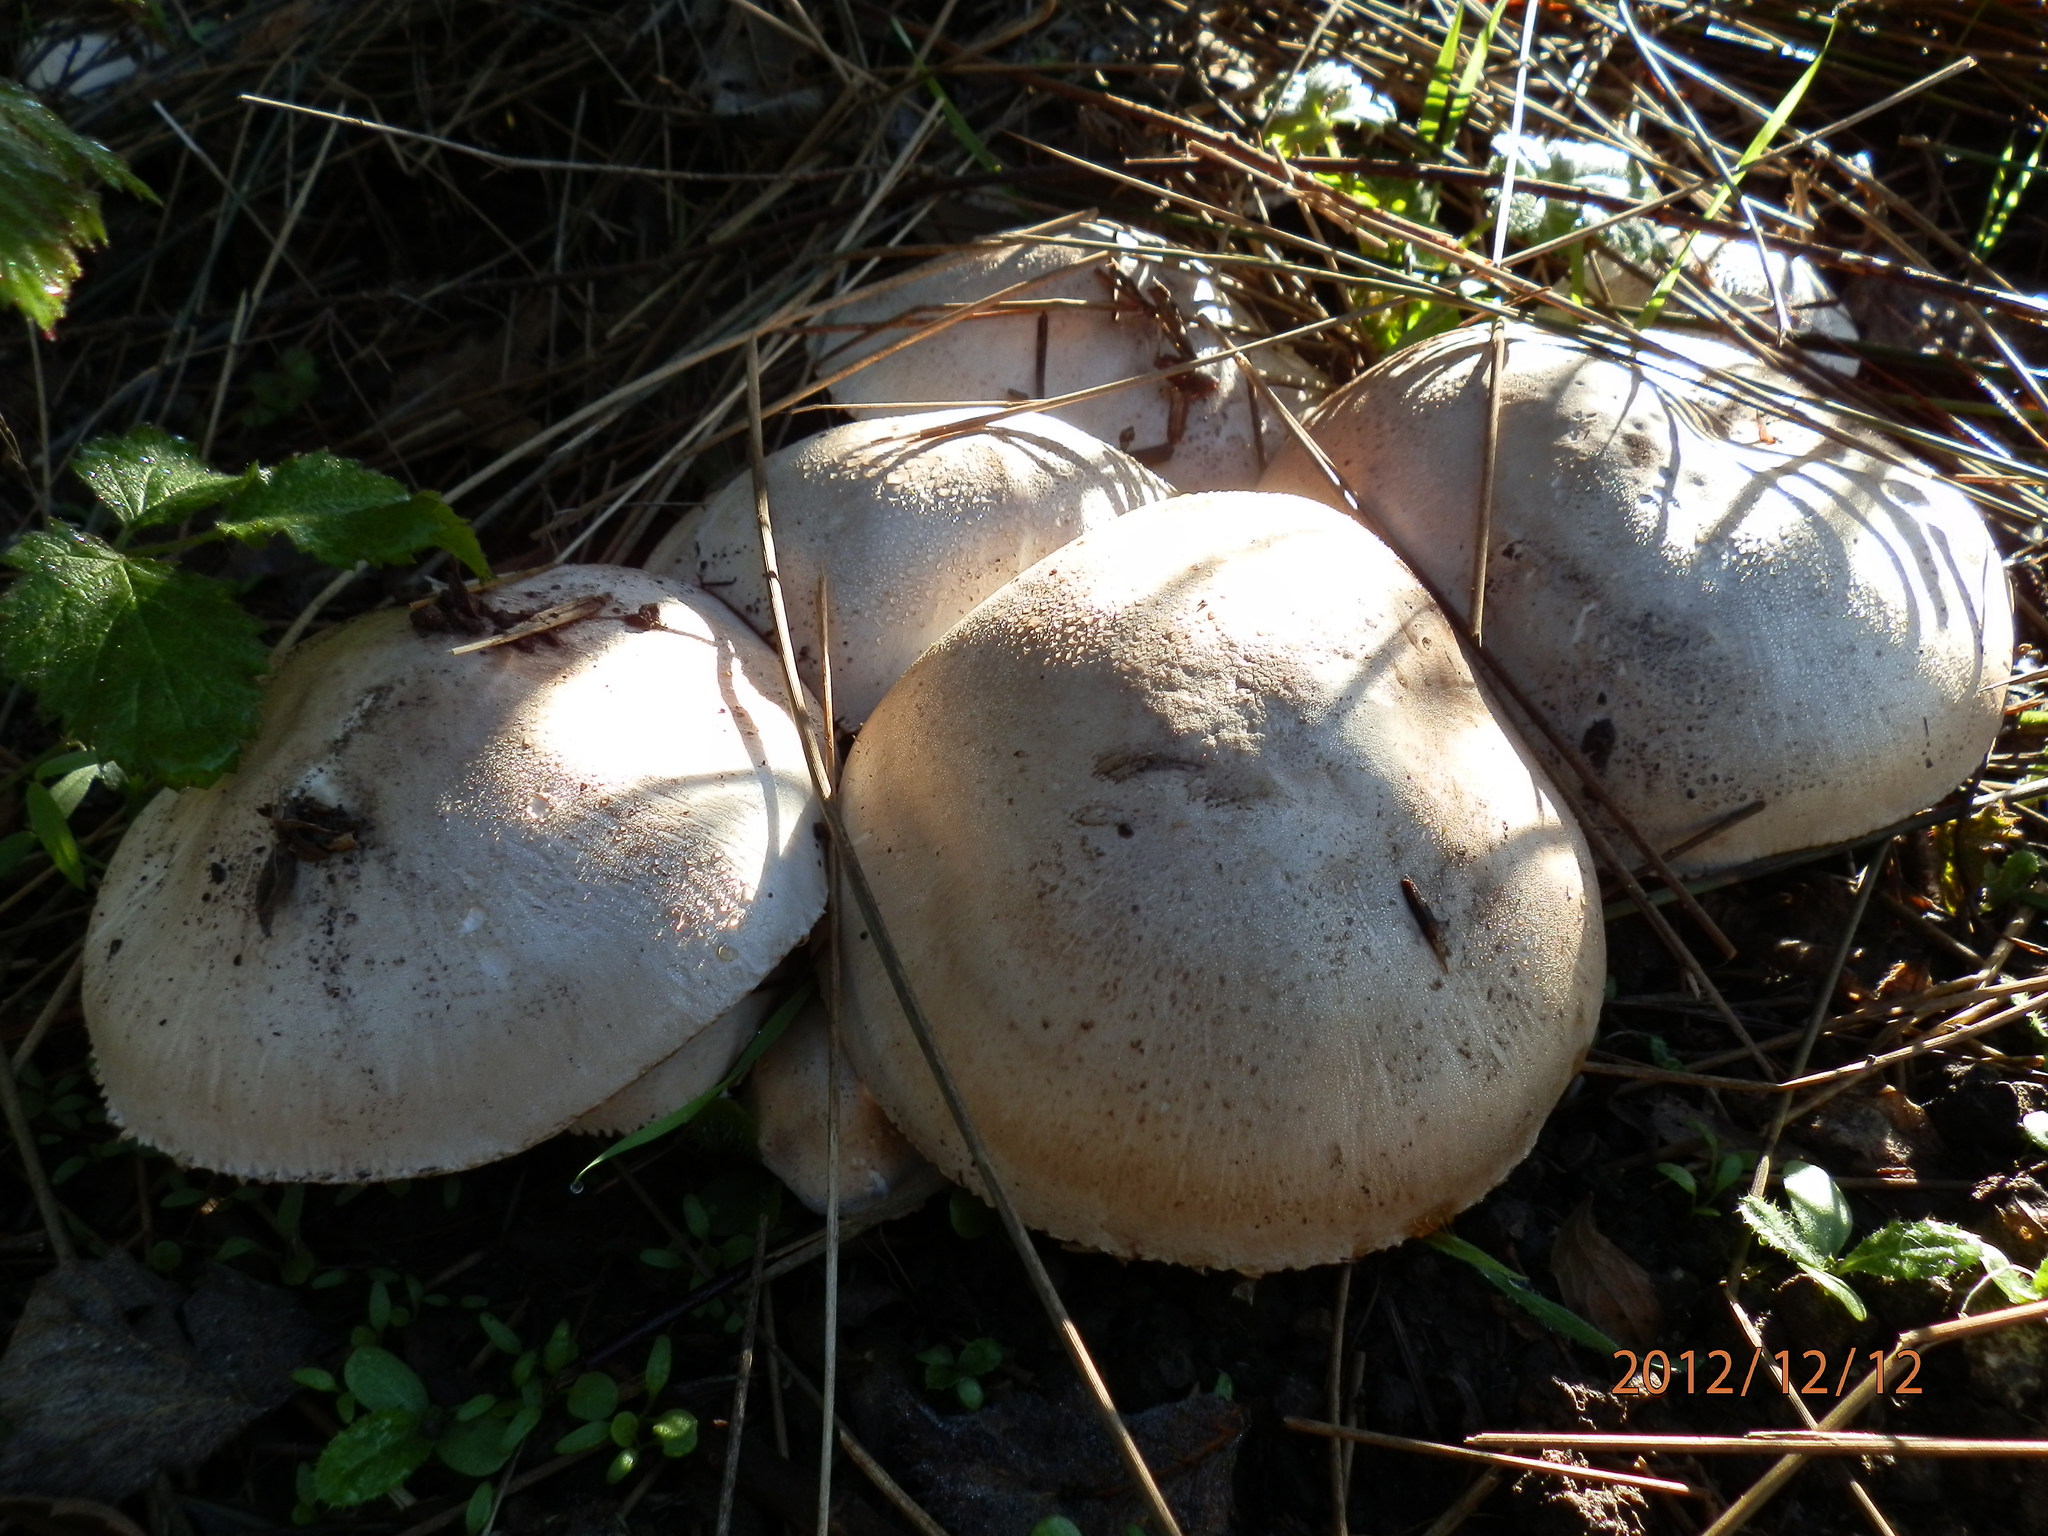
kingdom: Fungi
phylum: Basidiomycota
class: Agaricomycetes
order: Agaricales
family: Agaricaceae
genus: Agaricus
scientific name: Agaricus xanthodermus
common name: Yellow stainer
